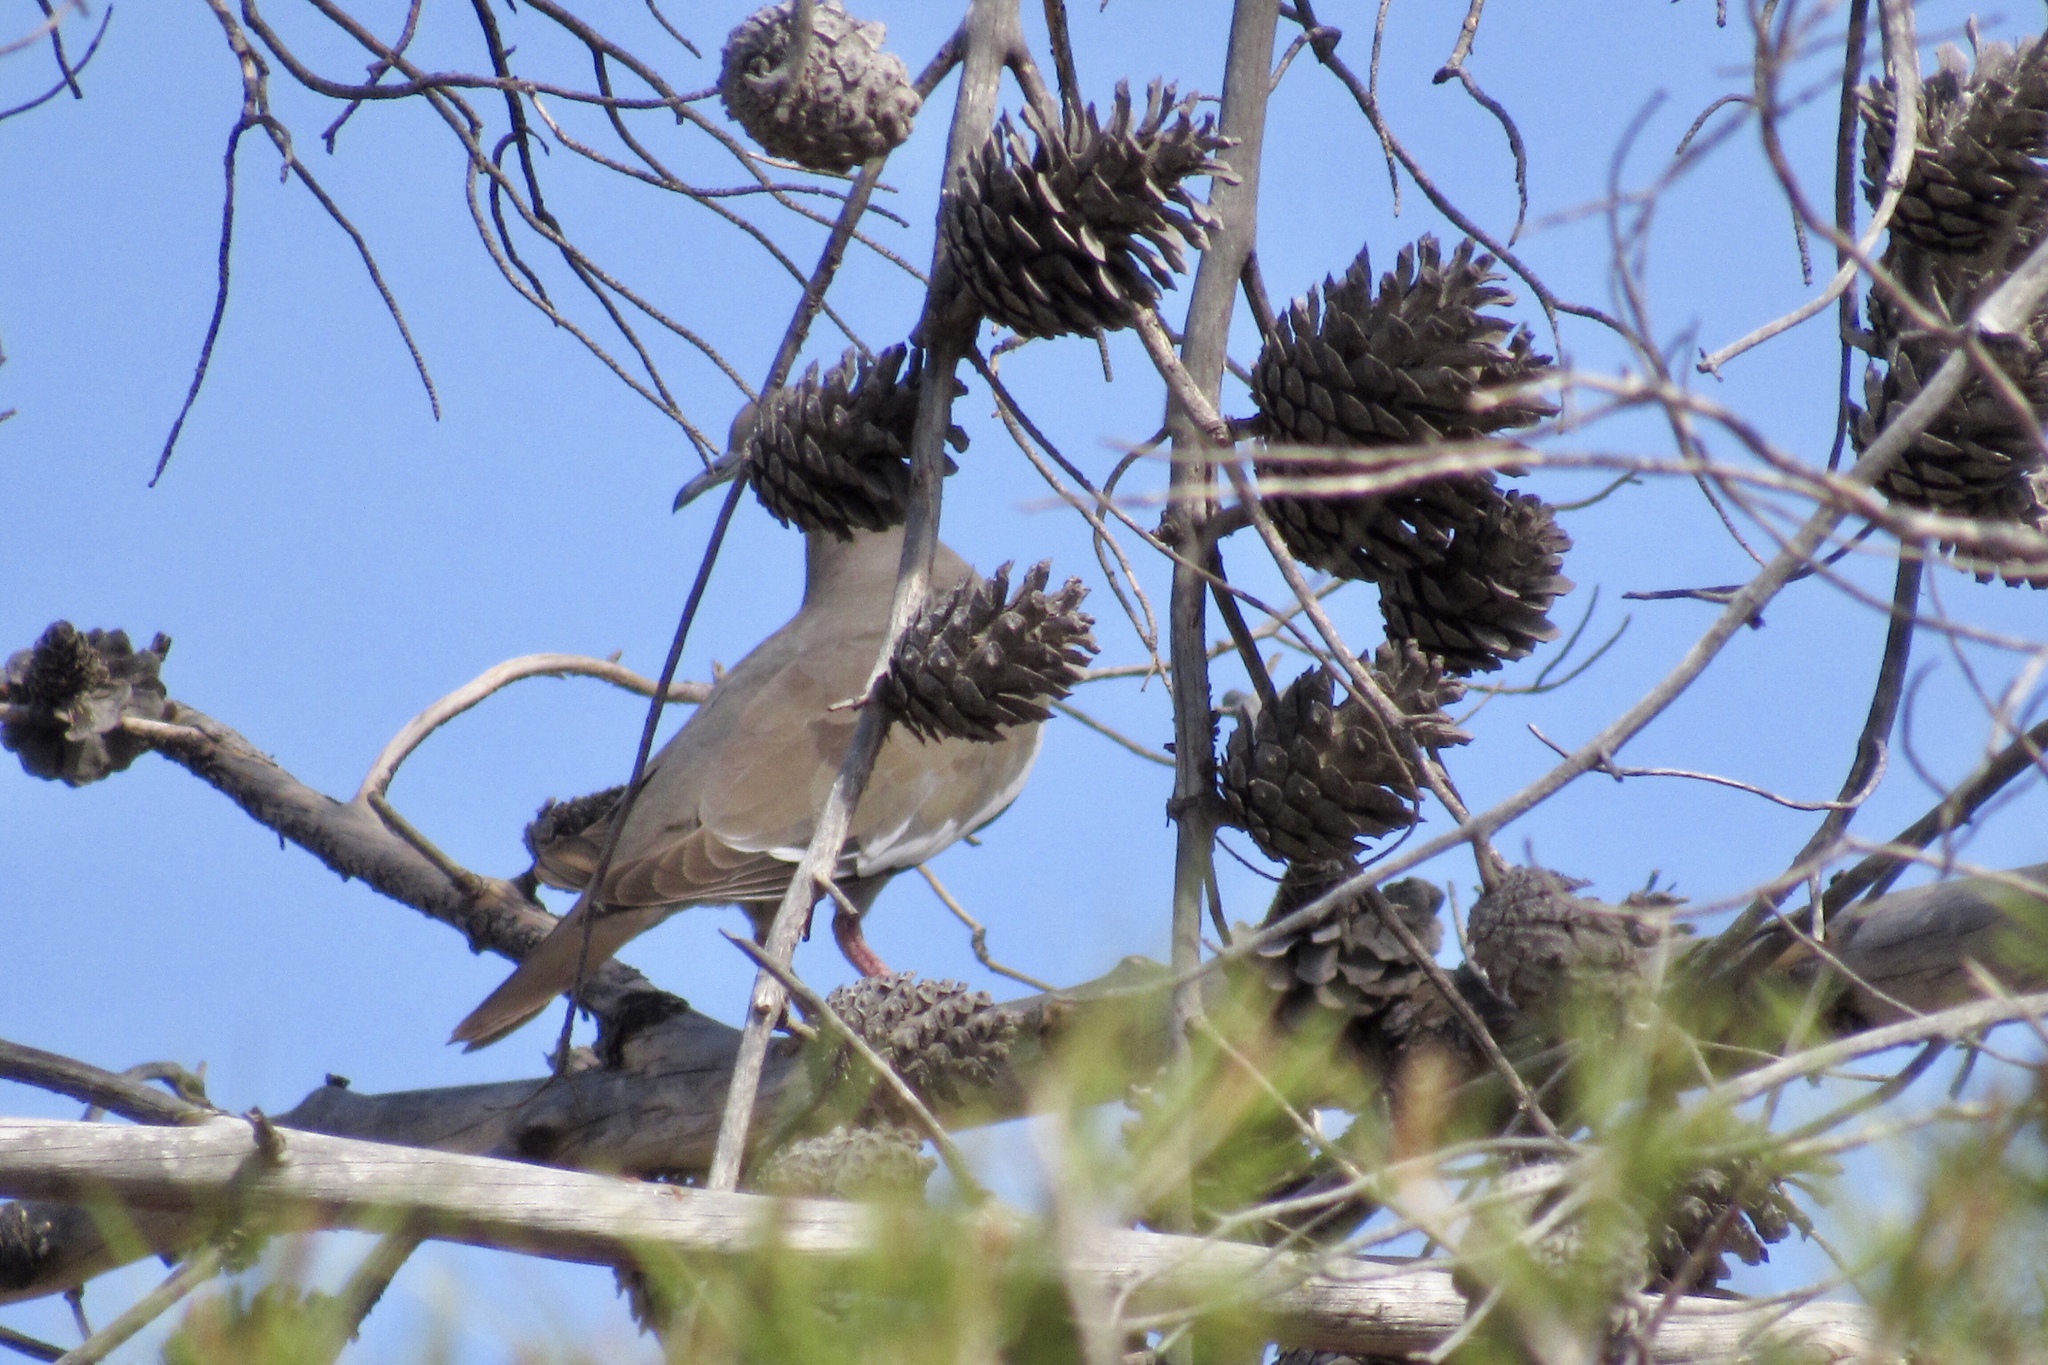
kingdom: Animalia
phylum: Chordata
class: Aves
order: Columbiformes
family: Columbidae
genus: Zenaida
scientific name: Zenaida asiatica
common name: White-winged dove
